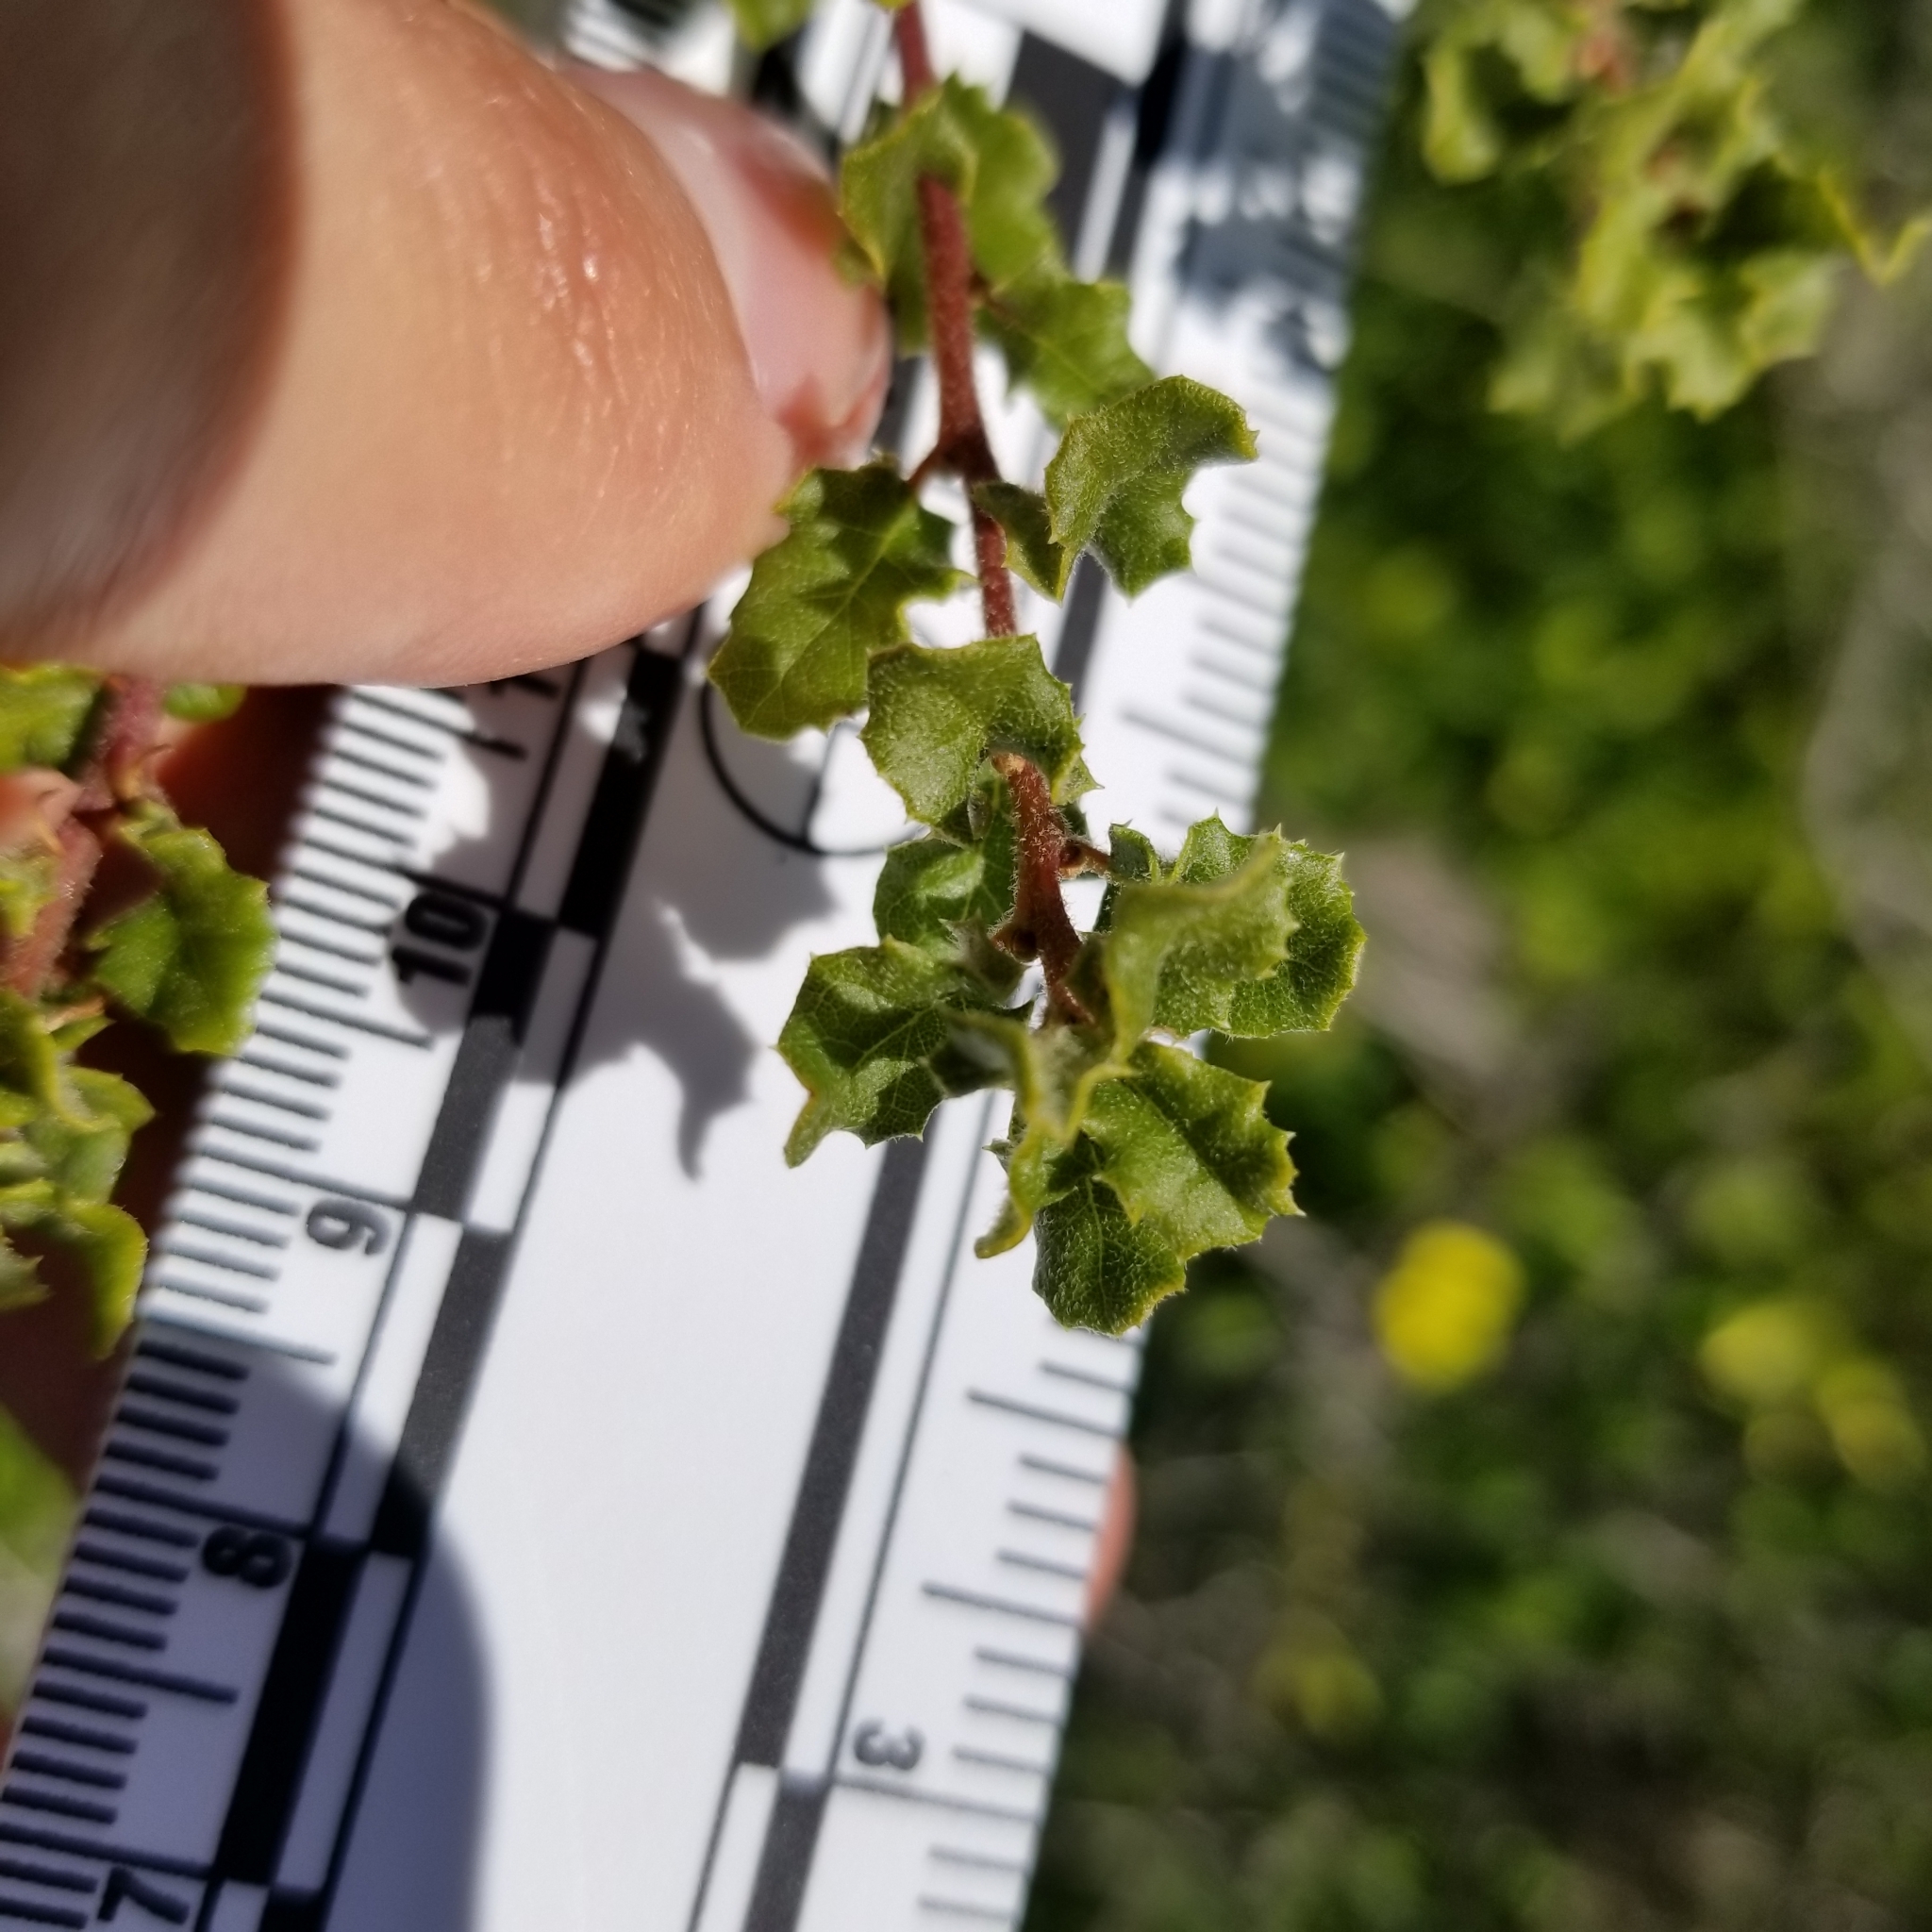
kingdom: Plantae
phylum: Tracheophyta
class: Magnoliopsida
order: Fagales
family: Fagaceae
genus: Quercus
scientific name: Quercus dumosa
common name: Coastal sage scrub oak
